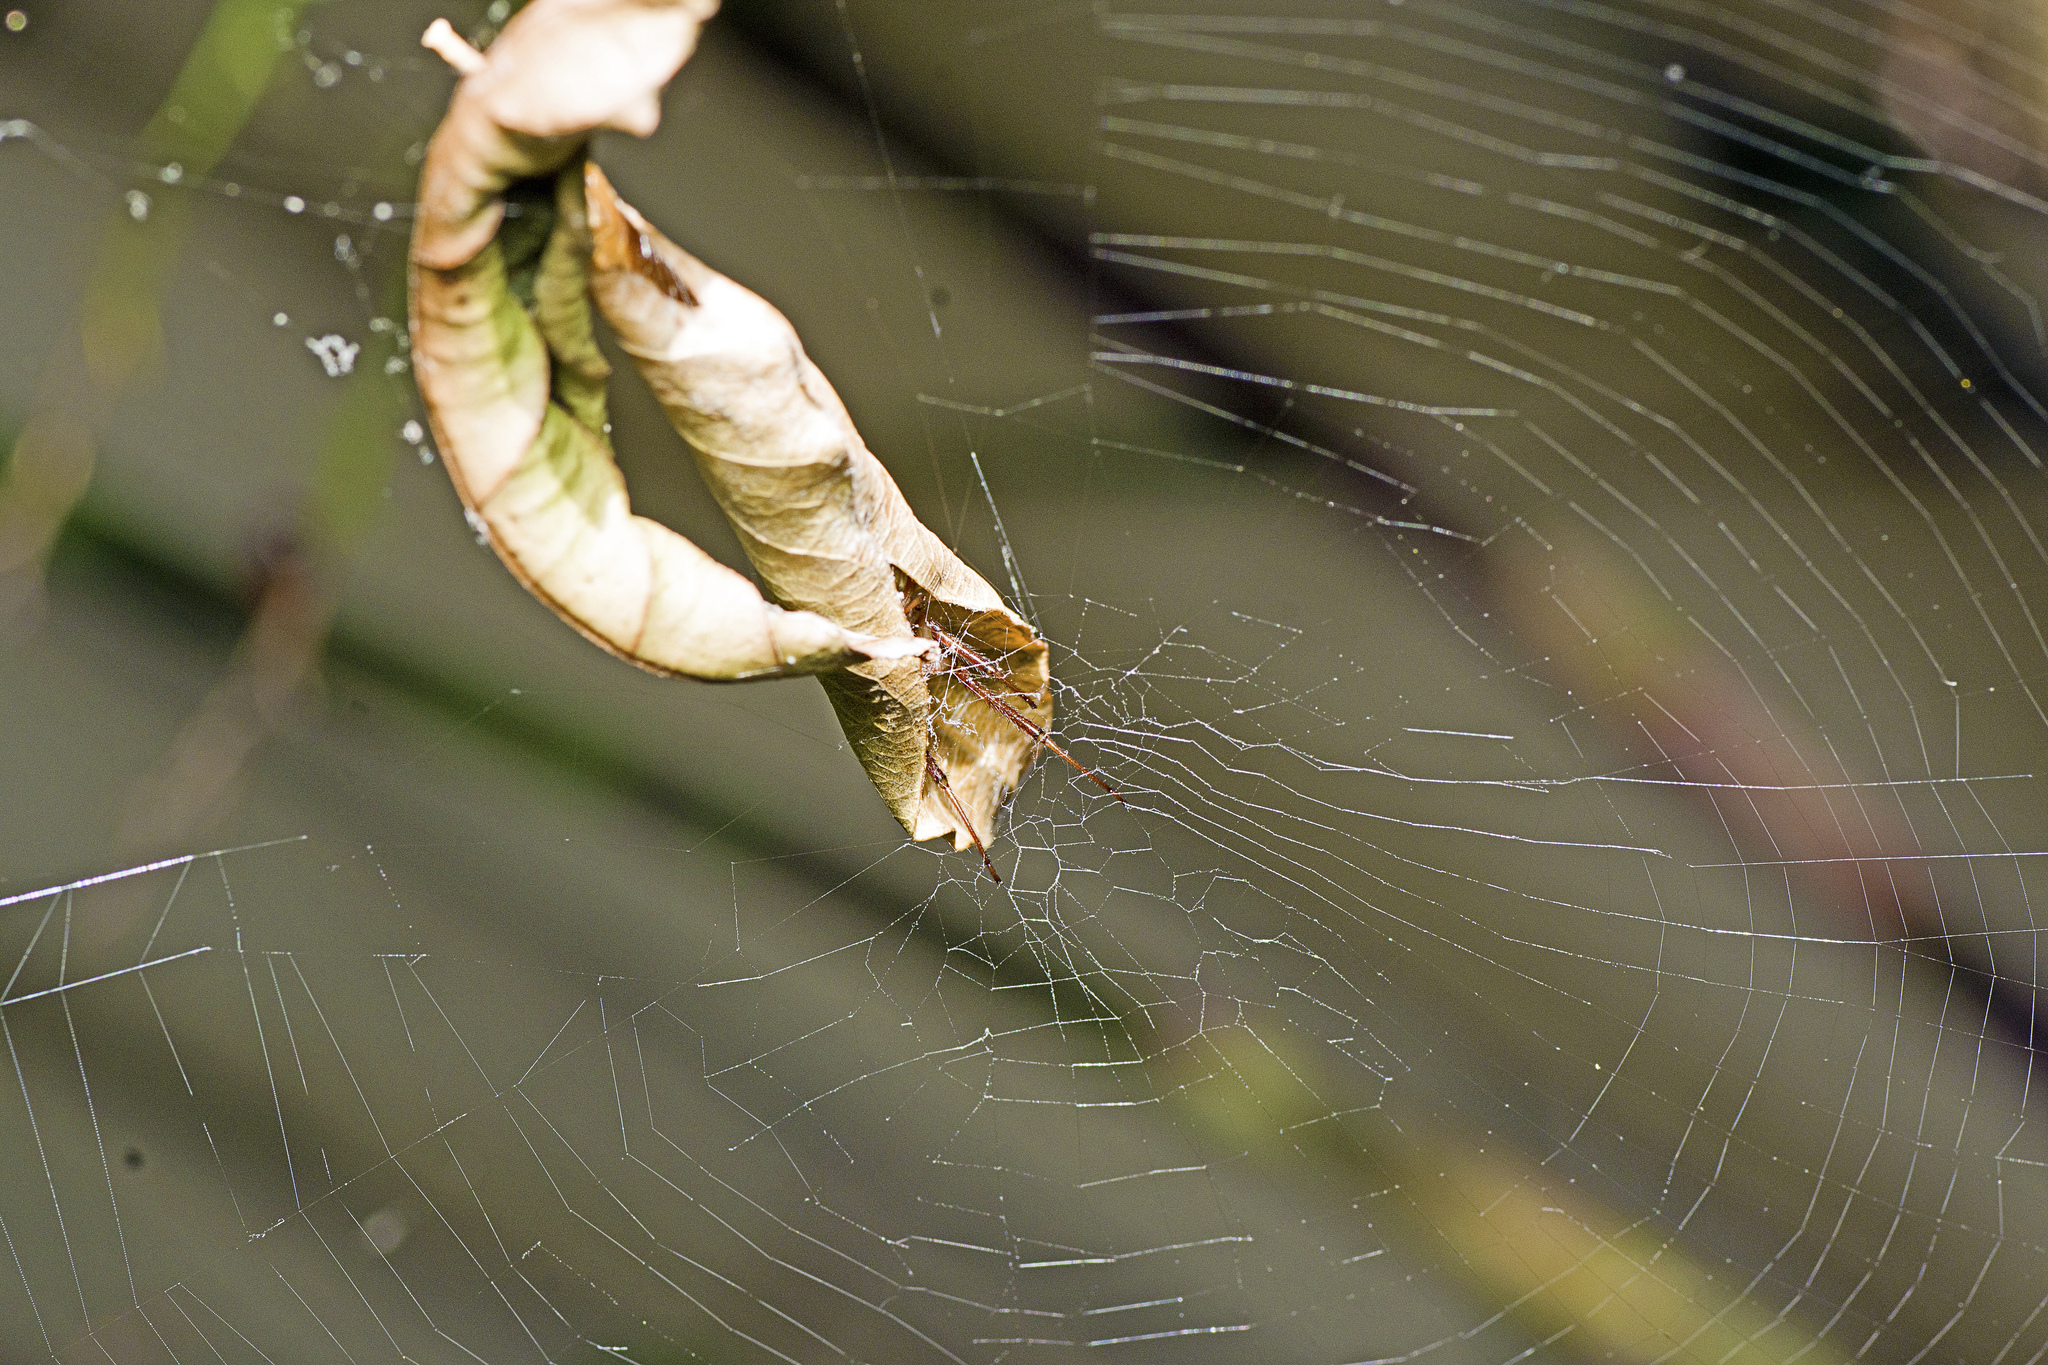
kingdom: Animalia
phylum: Arthropoda
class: Arachnida
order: Araneae
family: Araneidae
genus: Phonognatha
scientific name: Phonognatha graeffei
